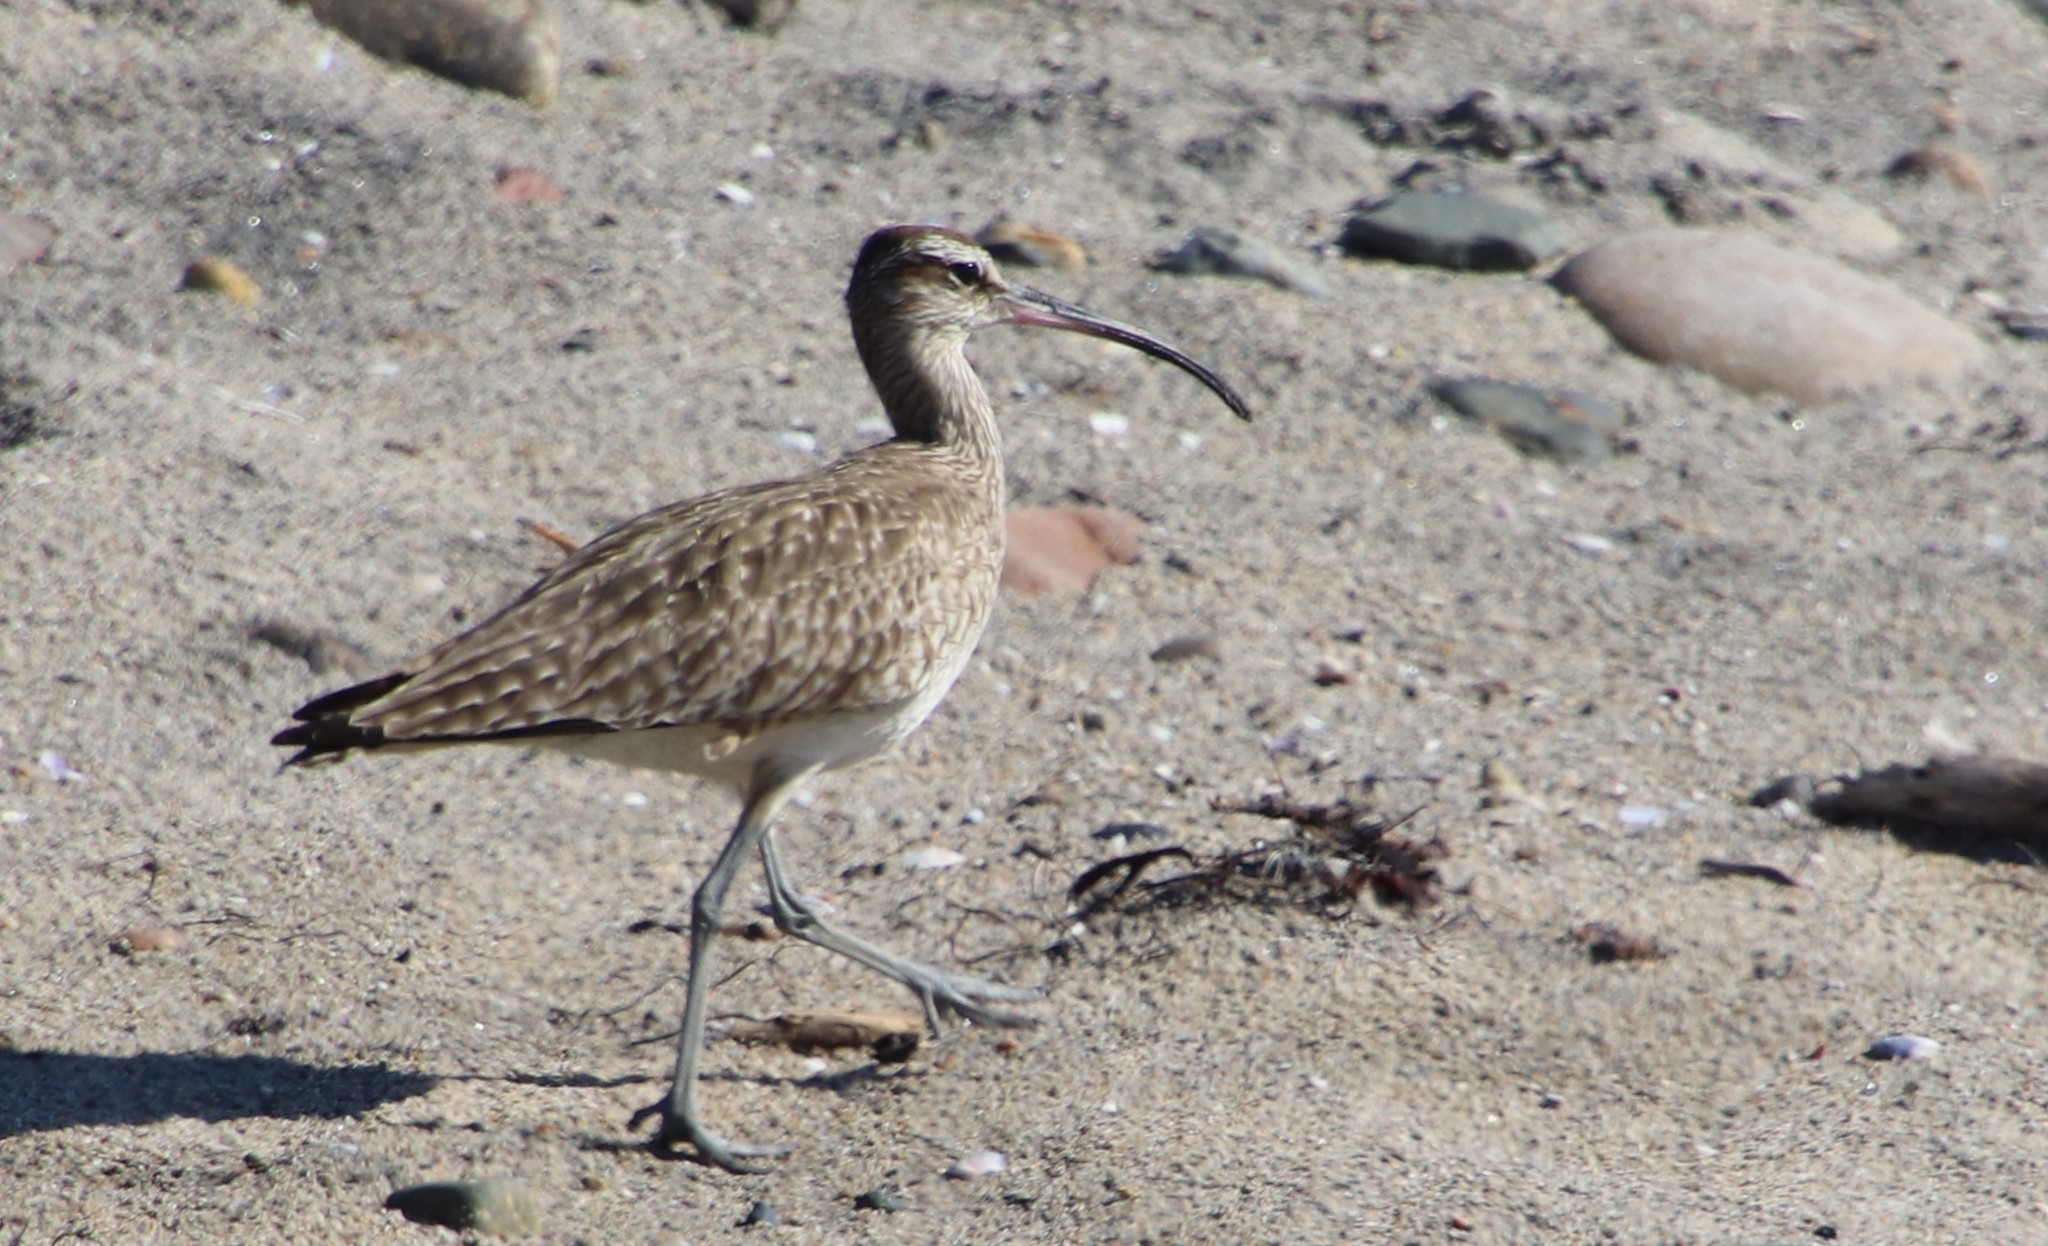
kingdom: Animalia
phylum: Chordata
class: Aves
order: Charadriiformes
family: Scolopacidae
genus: Numenius
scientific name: Numenius phaeopus
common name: Whimbrel
